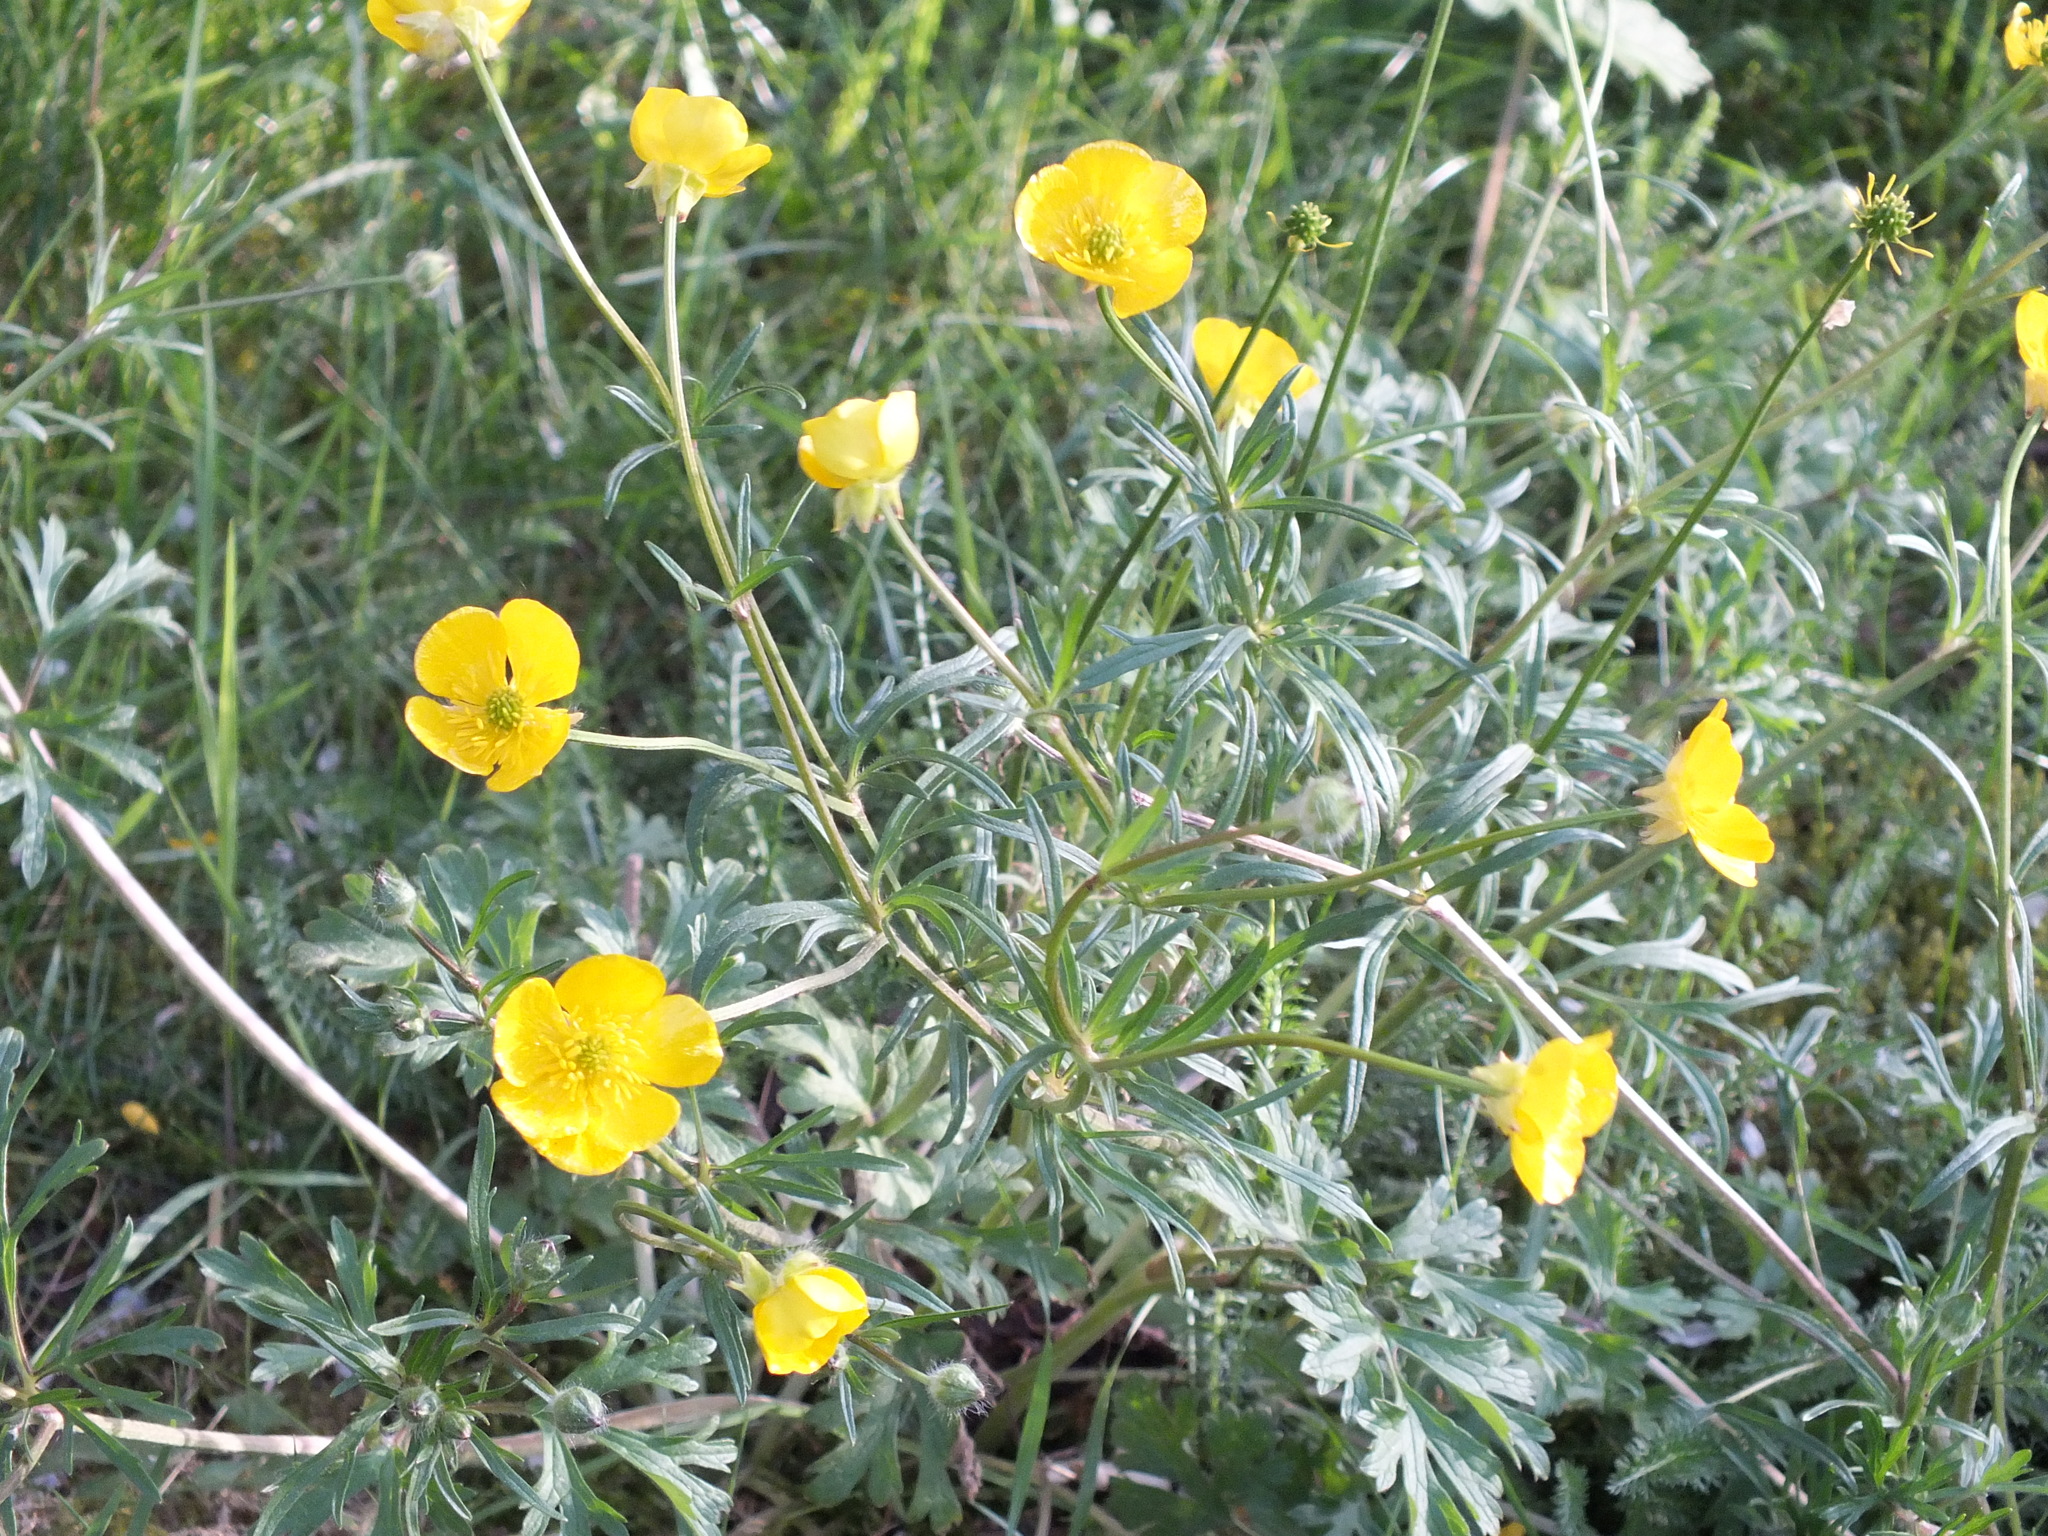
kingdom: Plantae
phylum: Tracheophyta
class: Magnoliopsida
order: Ranunculales
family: Ranunculaceae
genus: Ranunculus
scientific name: Ranunculus bulbosus
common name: Bulbous buttercup
